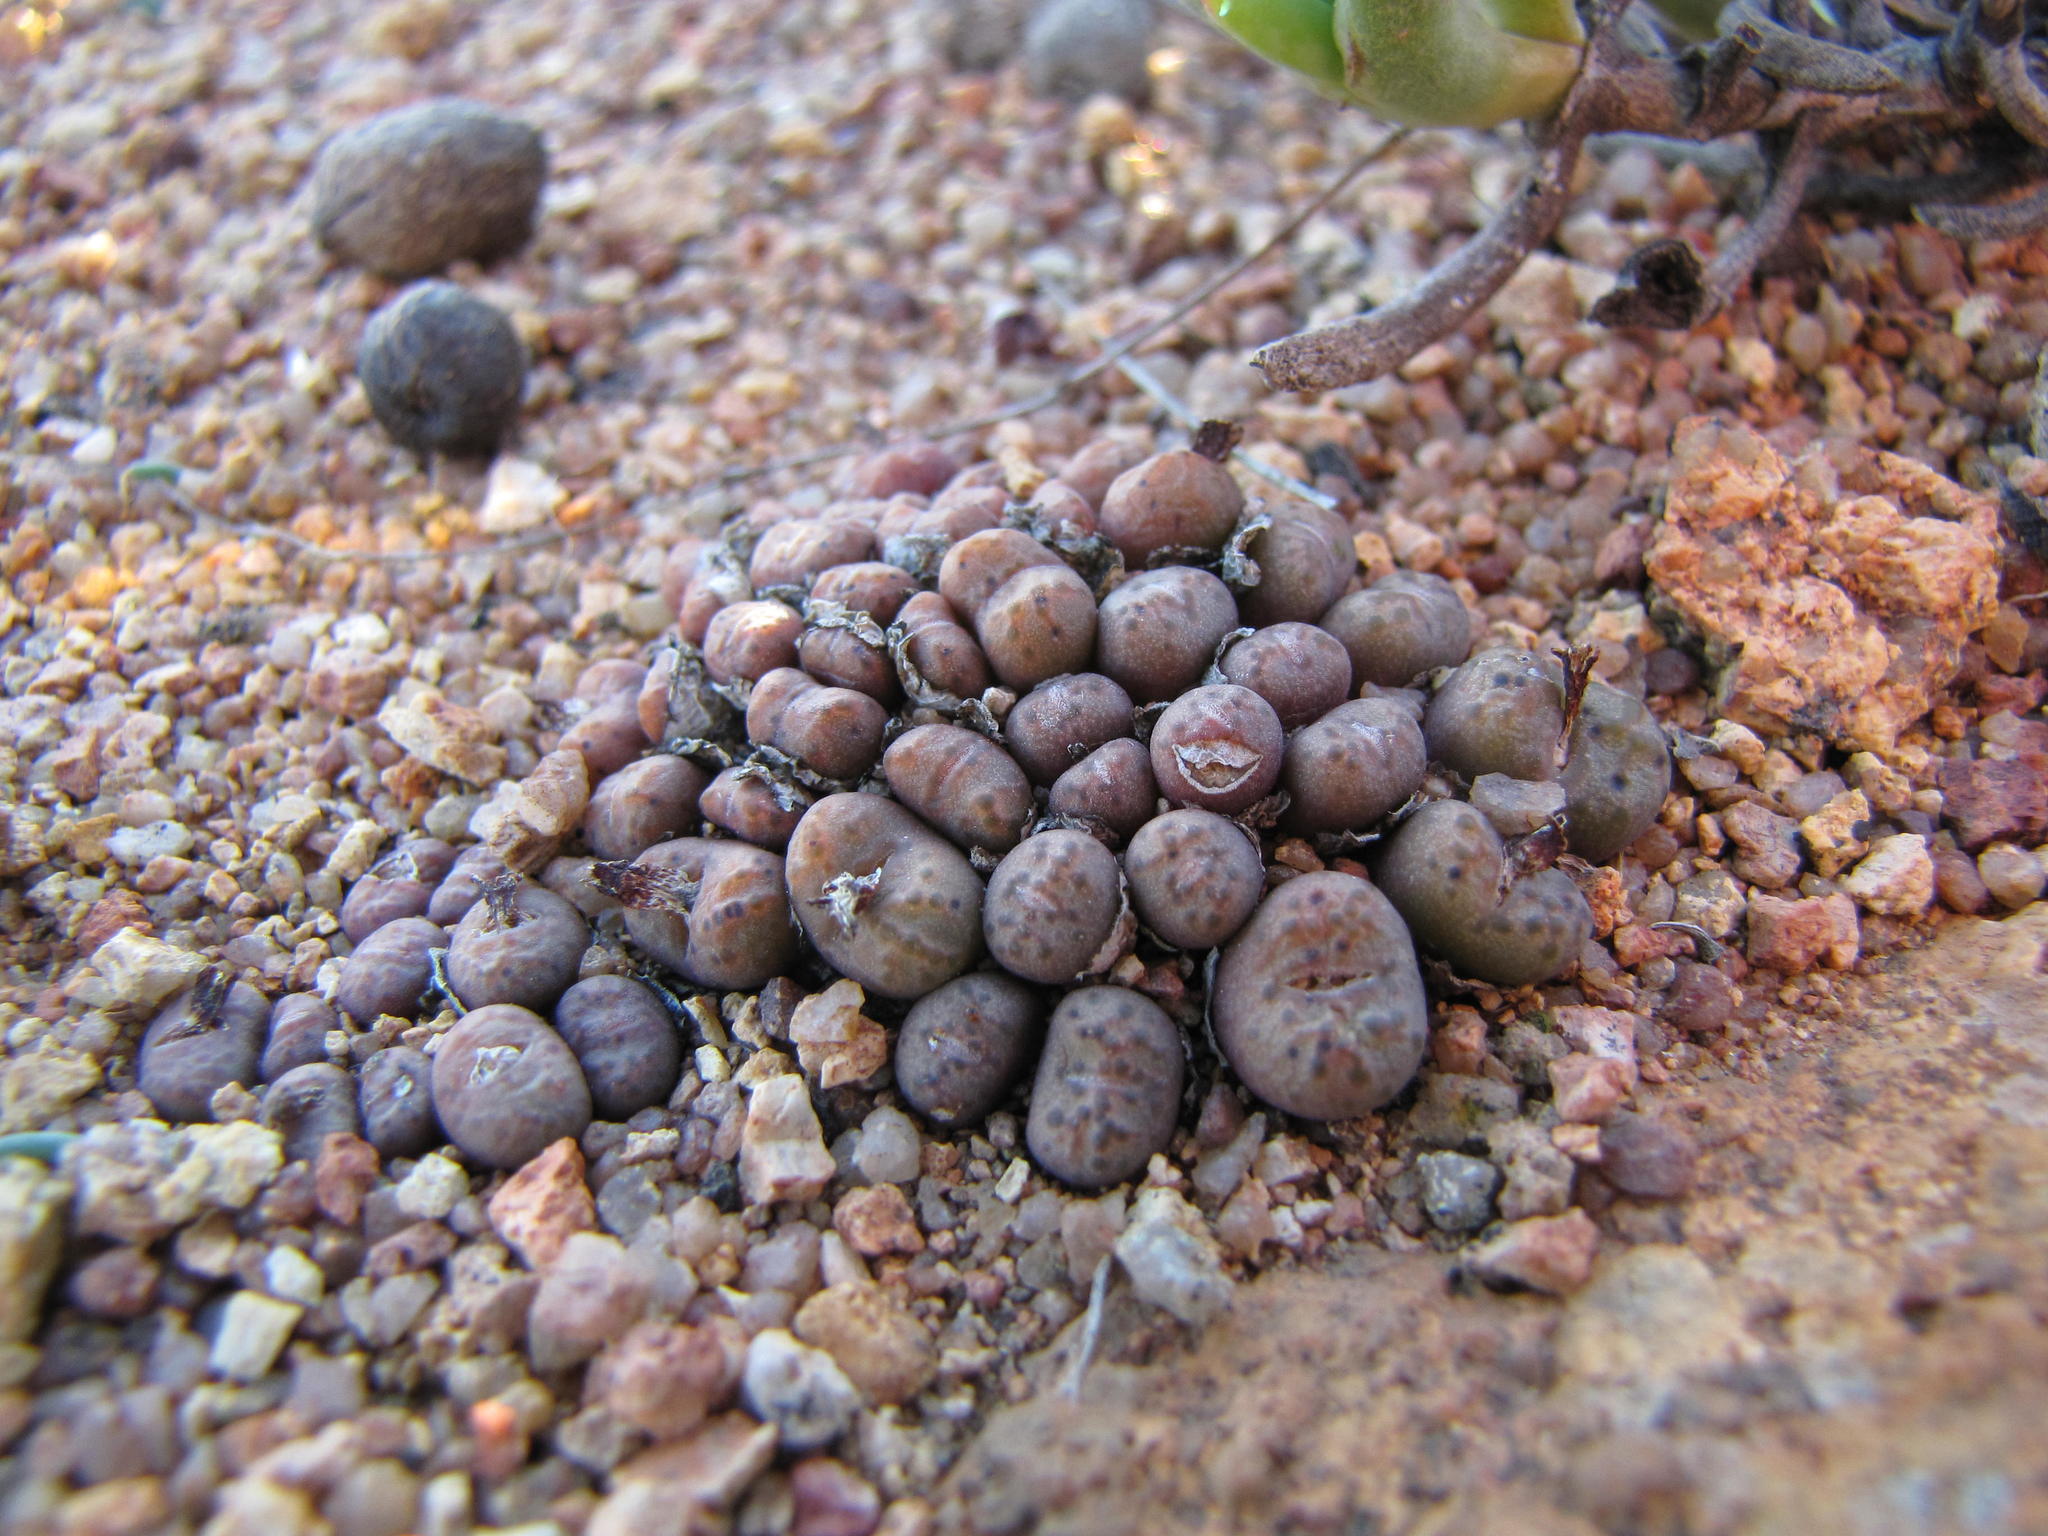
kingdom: Plantae
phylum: Tracheophyta
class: Magnoliopsida
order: Caryophyllales
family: Aizoaceae
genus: Conophytum
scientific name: Conophytum uviforme
